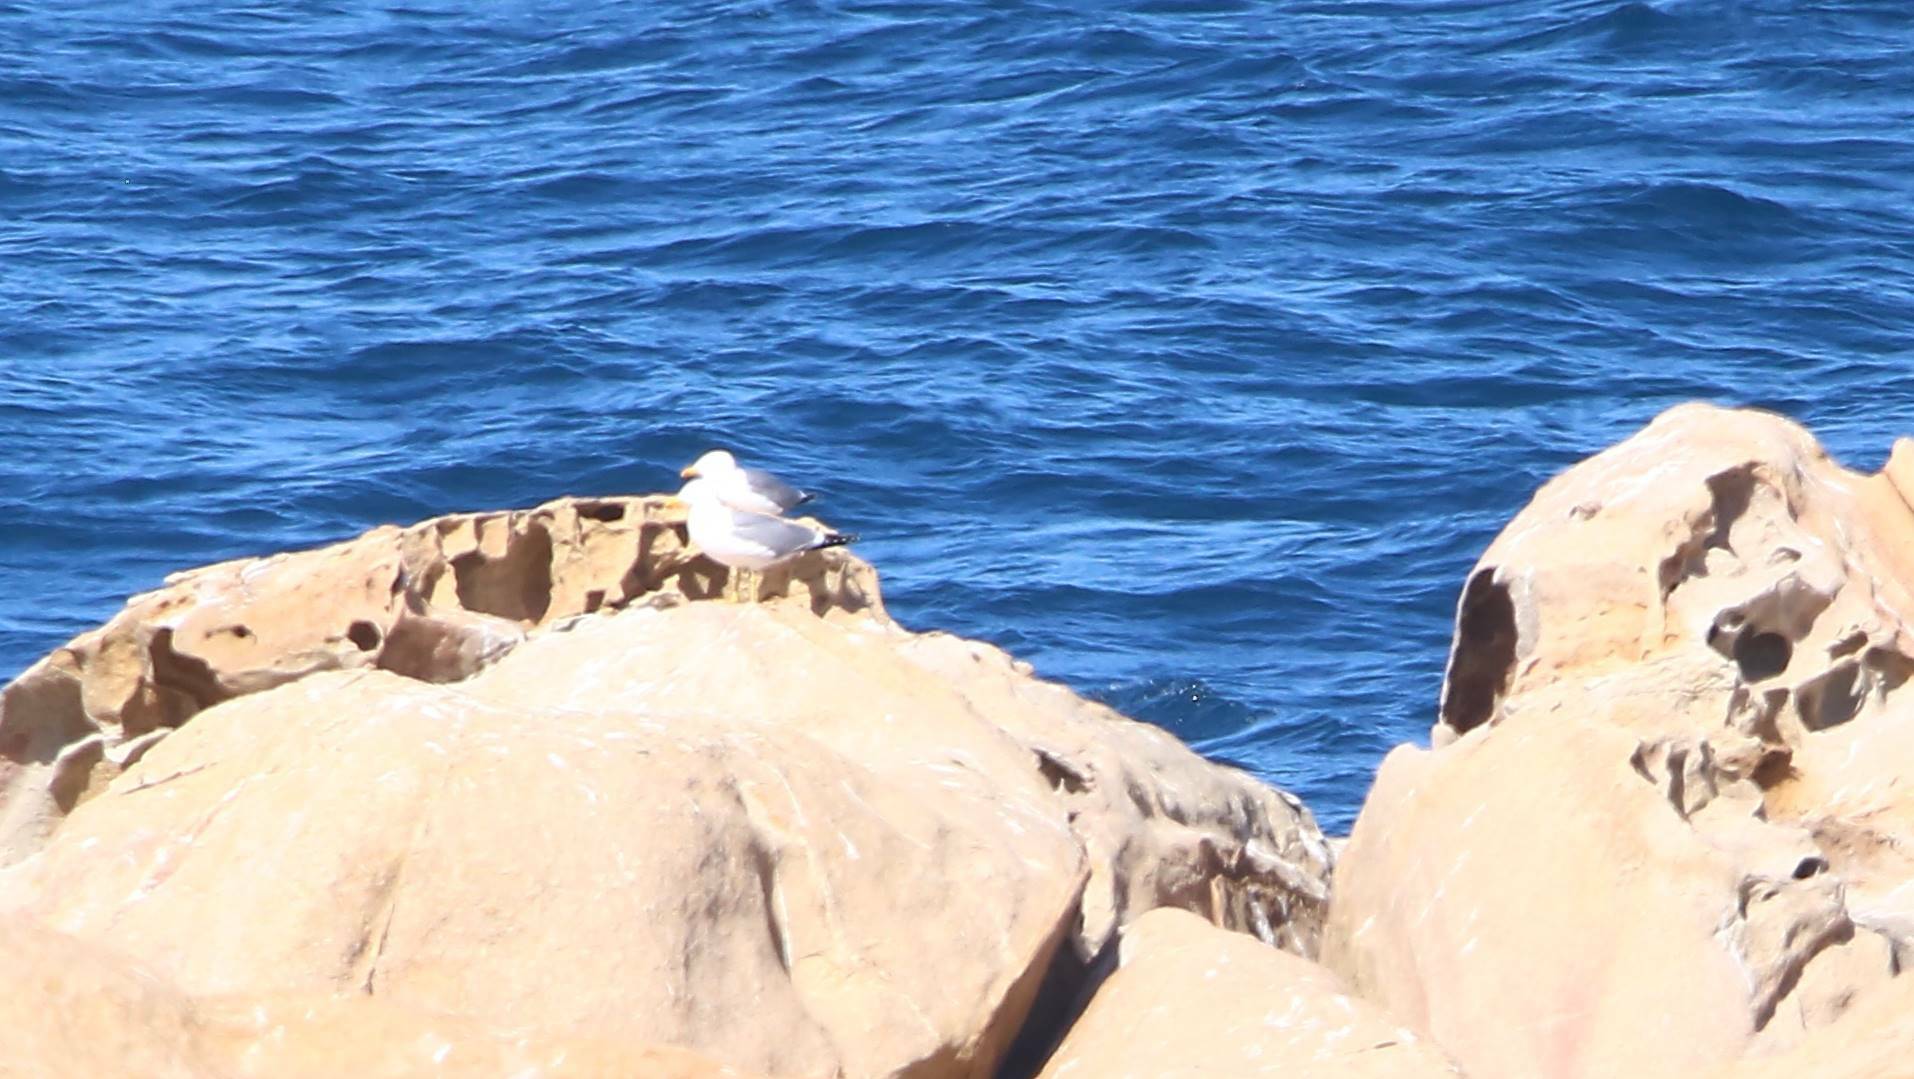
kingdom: Animalia
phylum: Chordata
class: Aves
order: Charadriiformes
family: Laridae
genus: Larus
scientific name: Larus michahellis
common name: Yellow-legged gull
